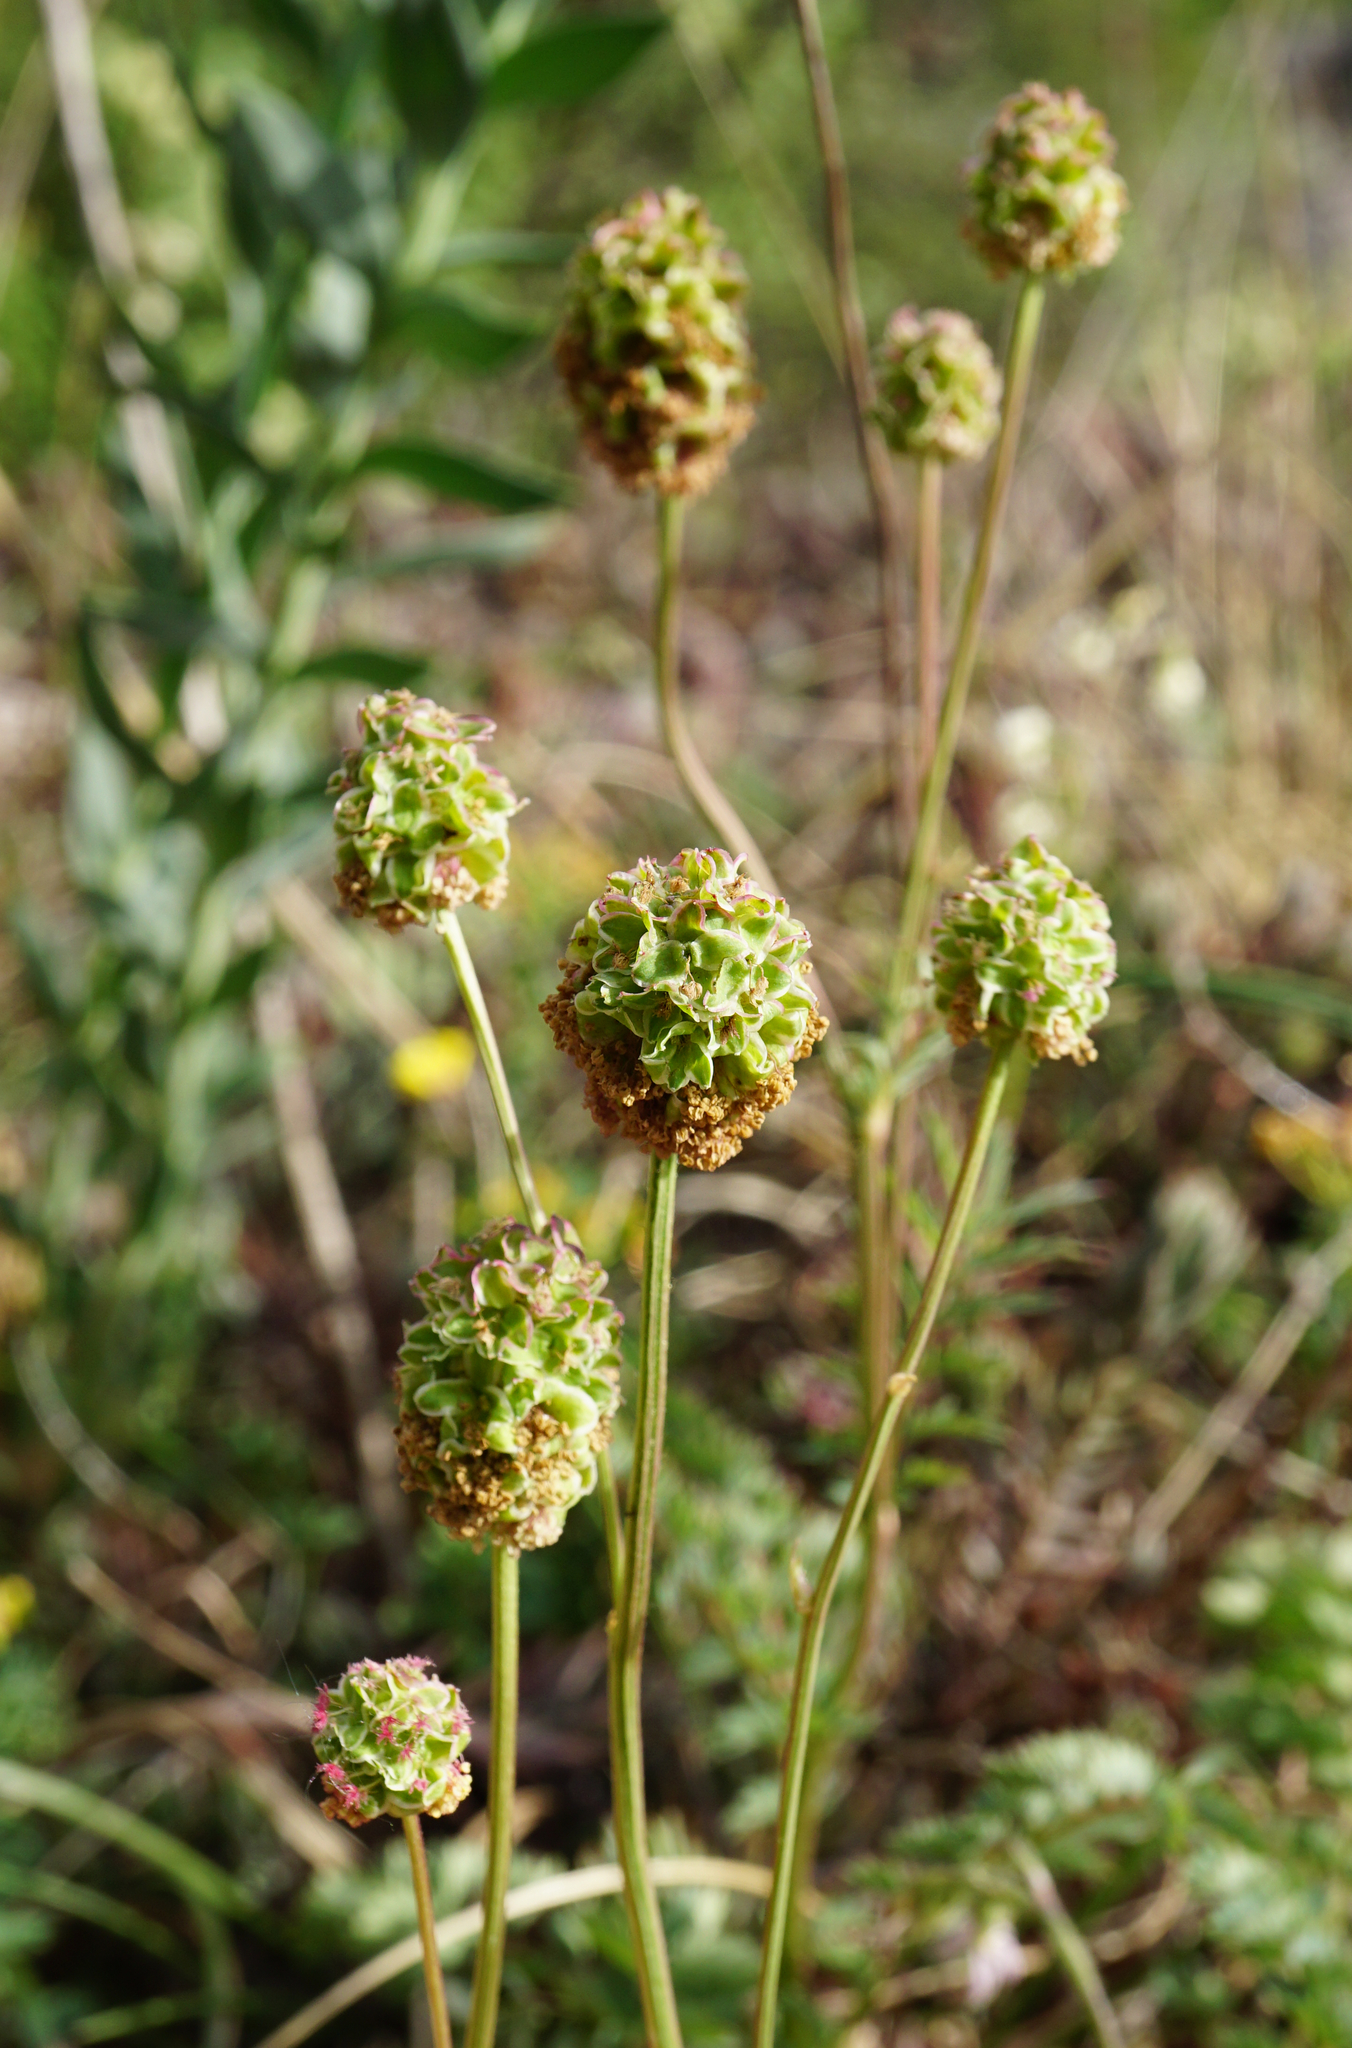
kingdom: Plantae
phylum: Tracheophyta
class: Magnoliopsida
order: Rosales
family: Rosaceae
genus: Poterium
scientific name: Poterium sanguisorba
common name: Salad burnet
